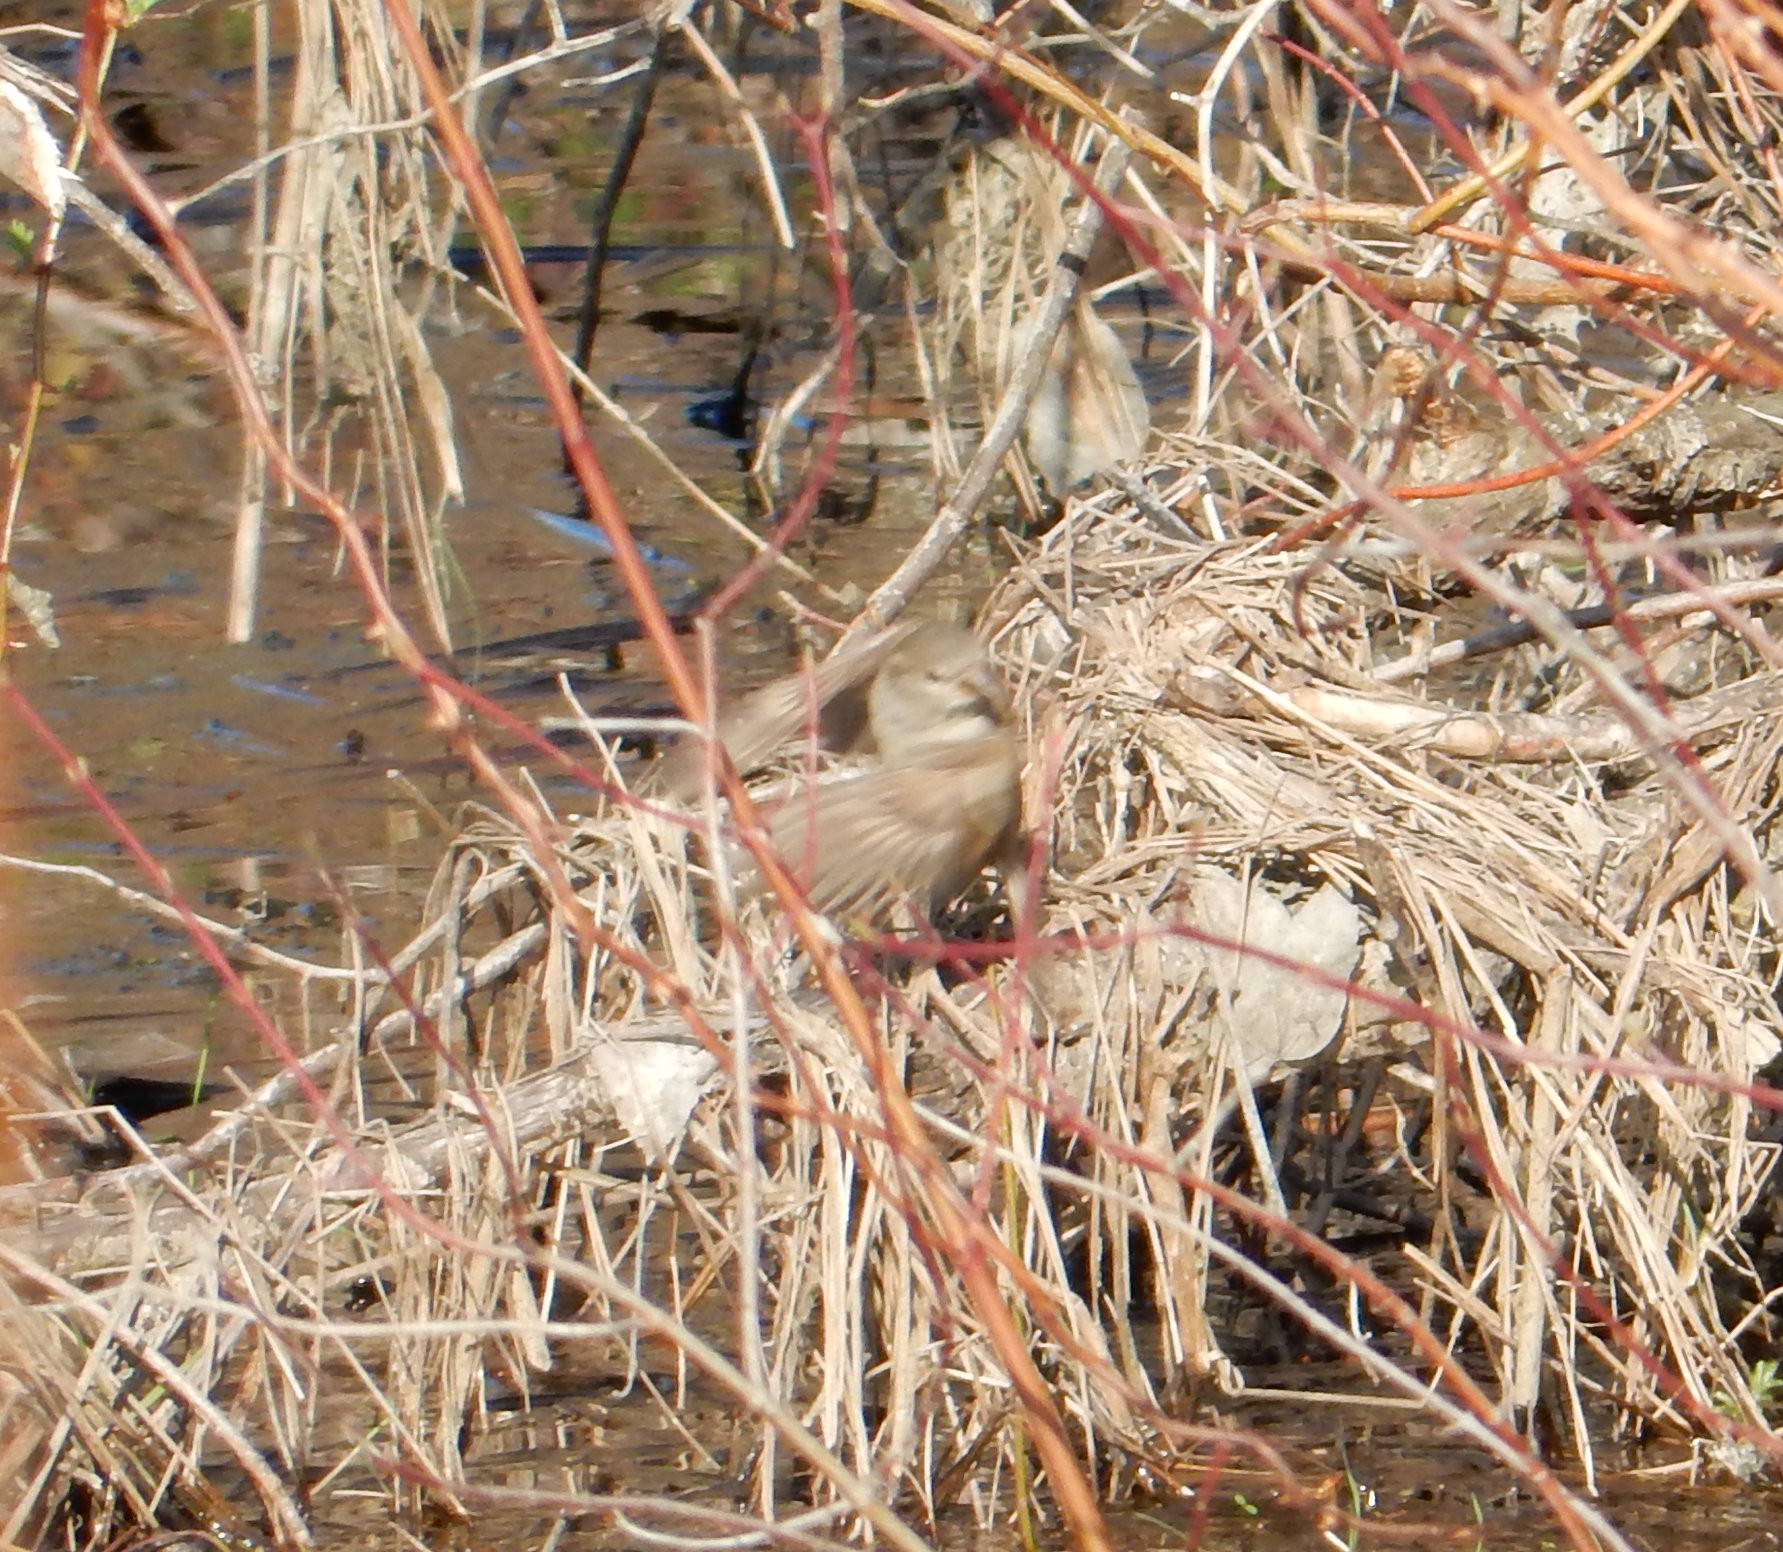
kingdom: Animalia
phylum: Chordata
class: Aves
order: Passeriformes
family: Passeridae
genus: Passer
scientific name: Passer domesticus
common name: House sparrow
